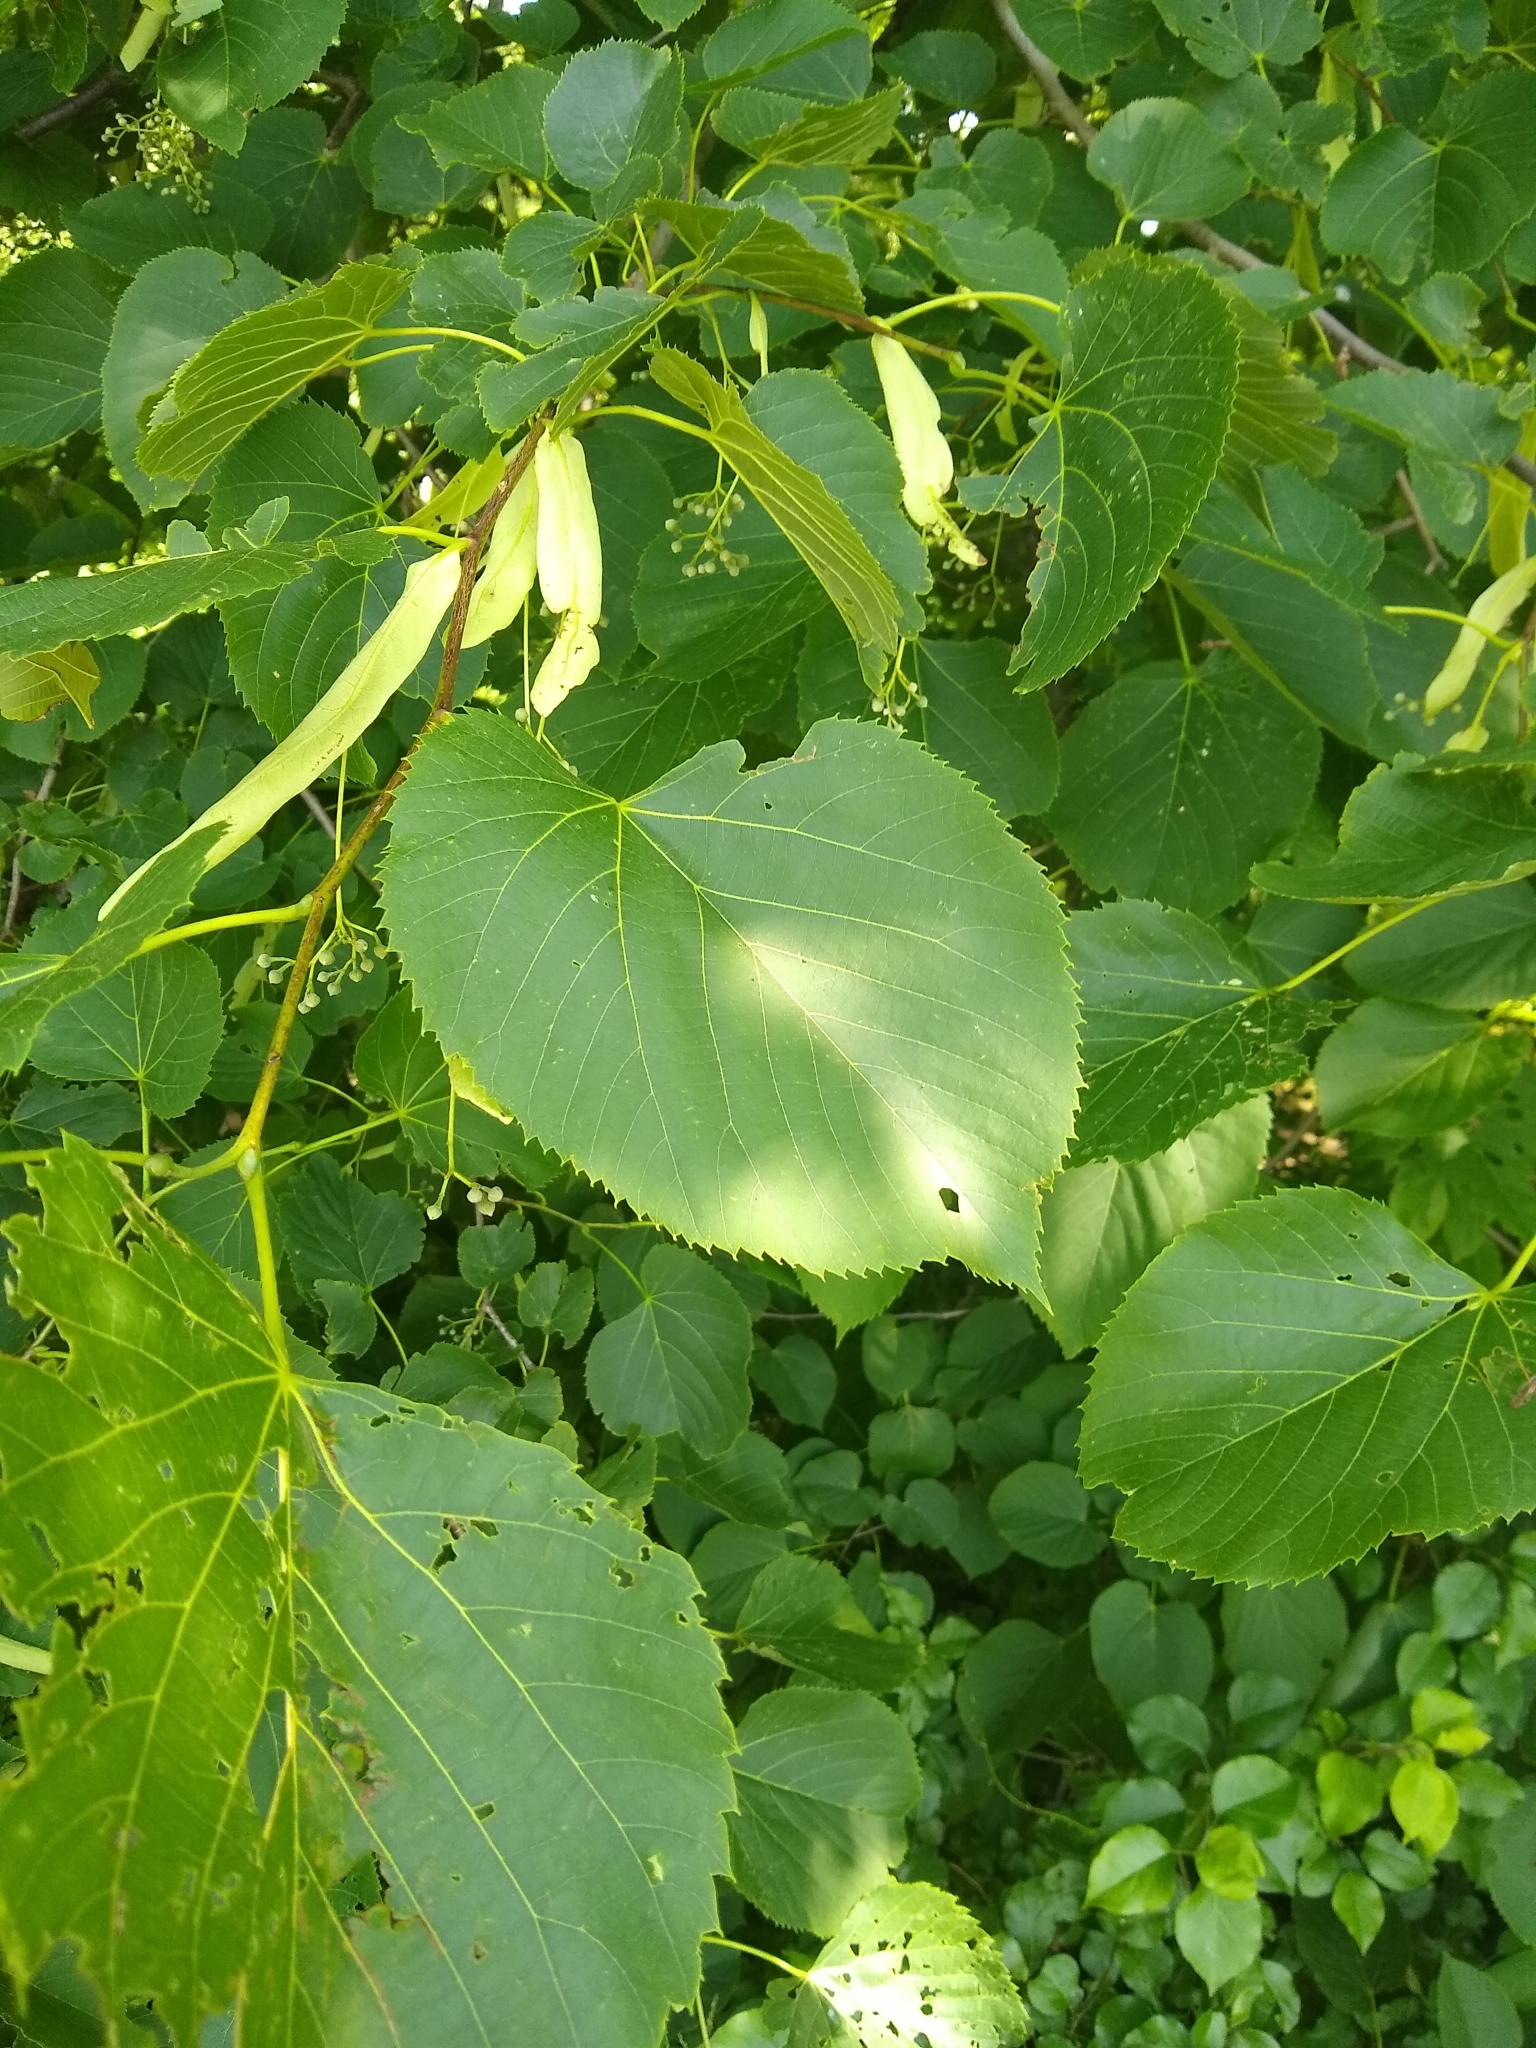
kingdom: Plantae
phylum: Tracheophyta
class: Magnoliopsida
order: Malvales
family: Malvaceae
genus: Tilia
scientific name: Tilia americana
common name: Basswood
